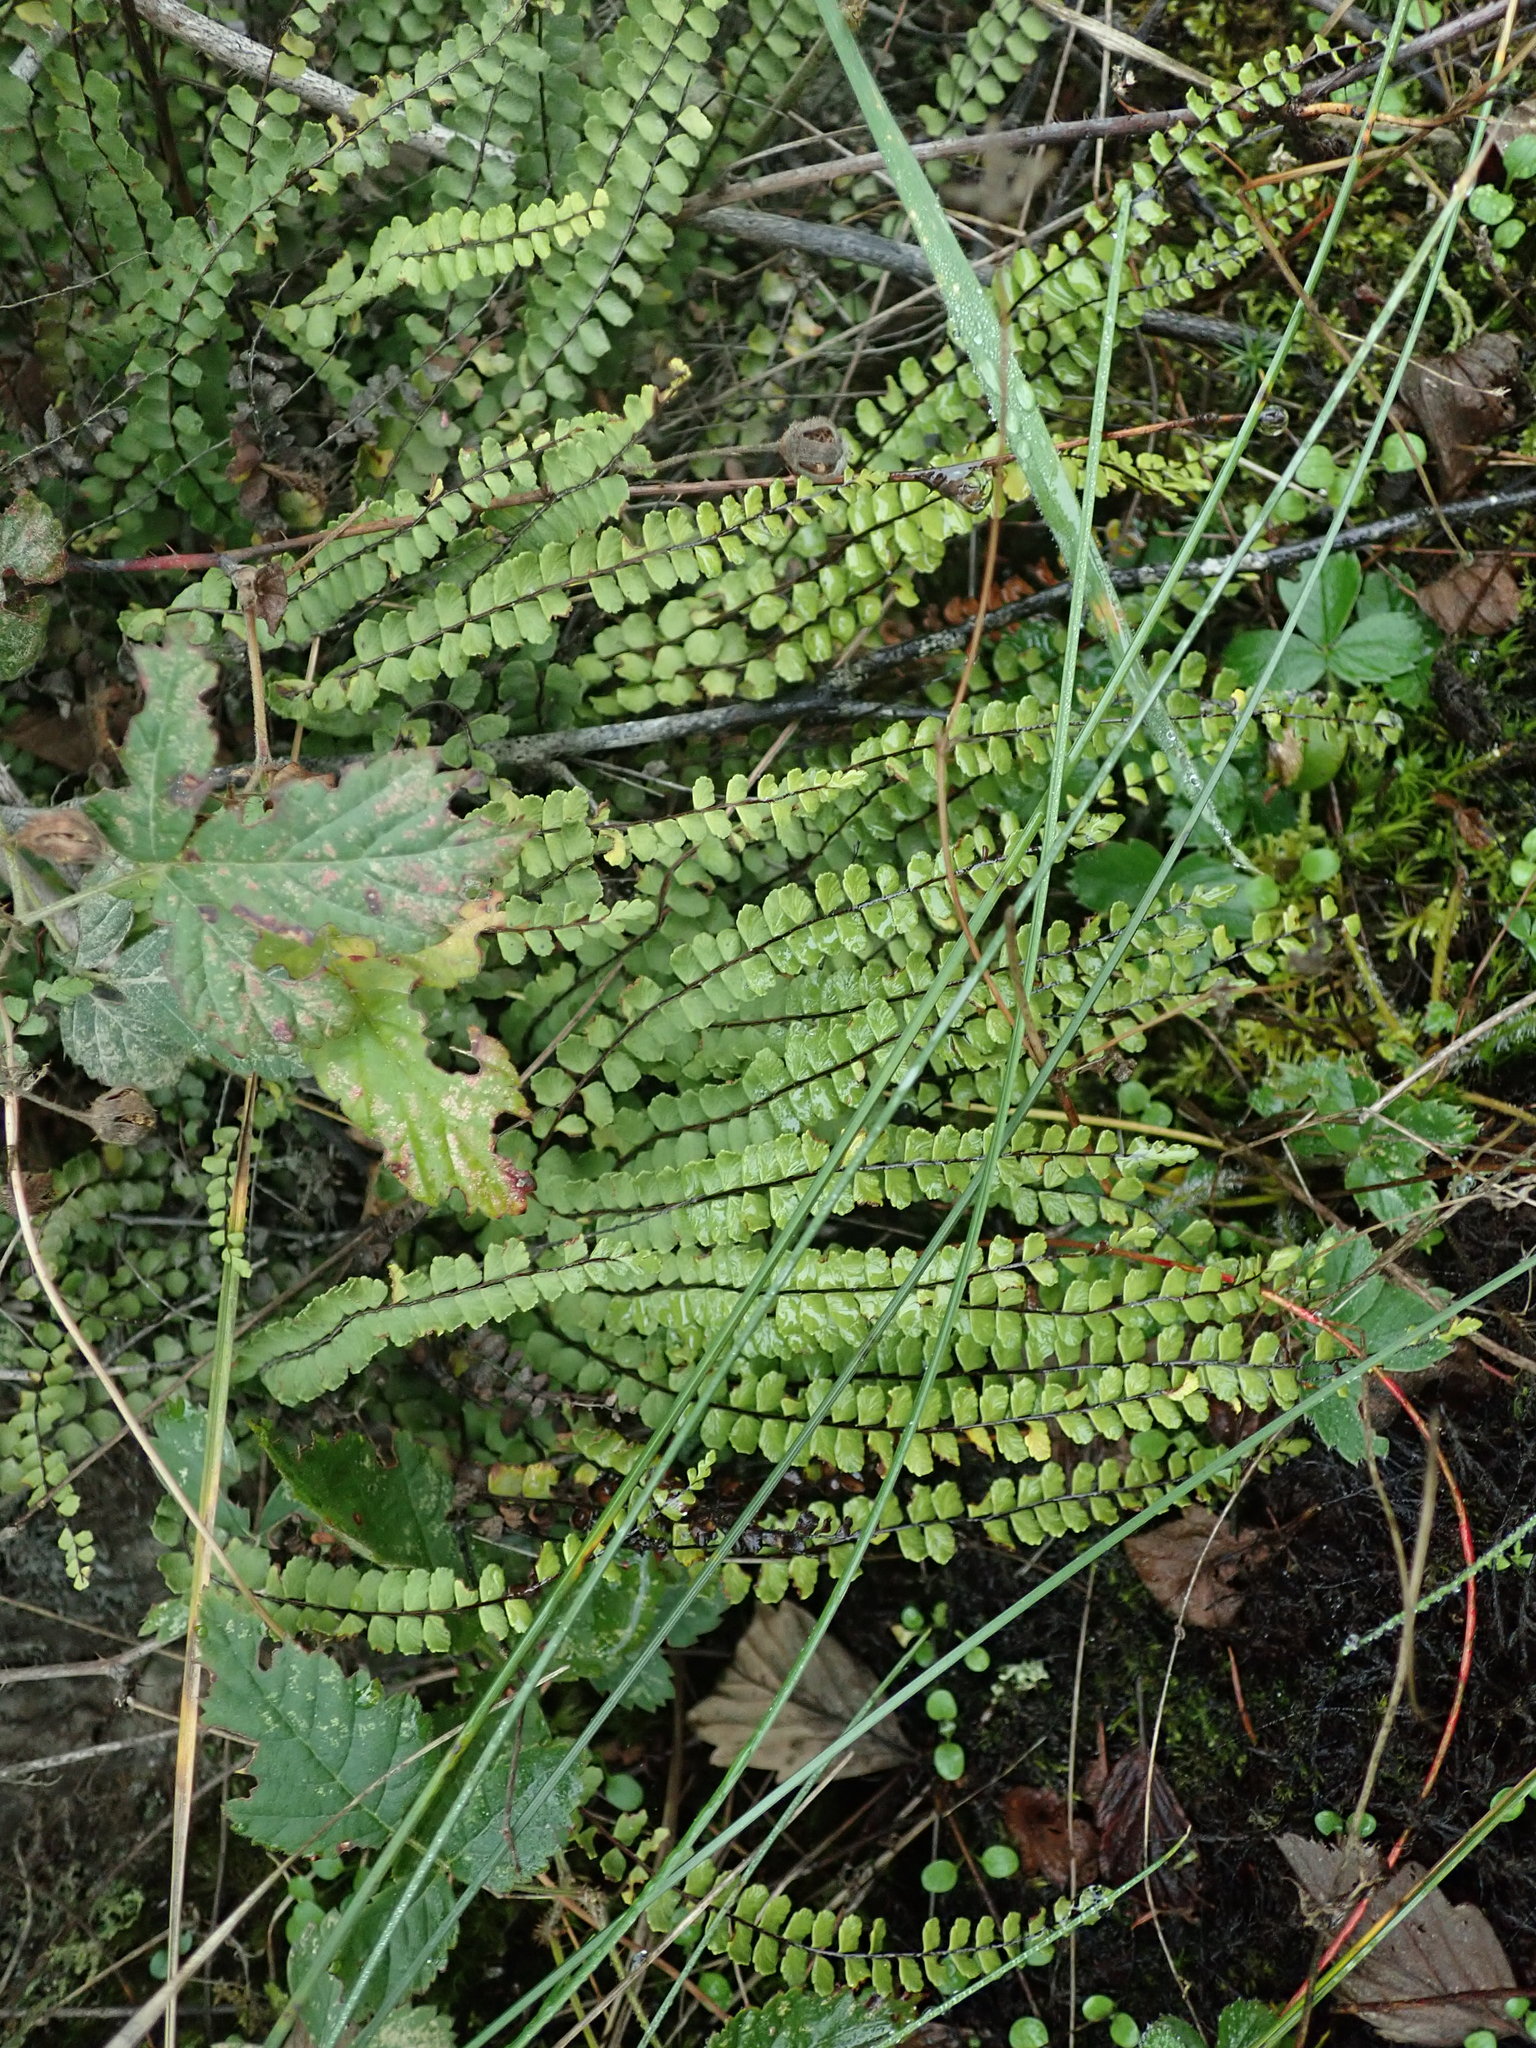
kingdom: Plantae
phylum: Tracheophyta
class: Polypodiopsida
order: Polypodiales
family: Aspleniaceae
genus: Asplenium
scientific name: Asplenium trichomanes
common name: Maidenhair spleenwort
